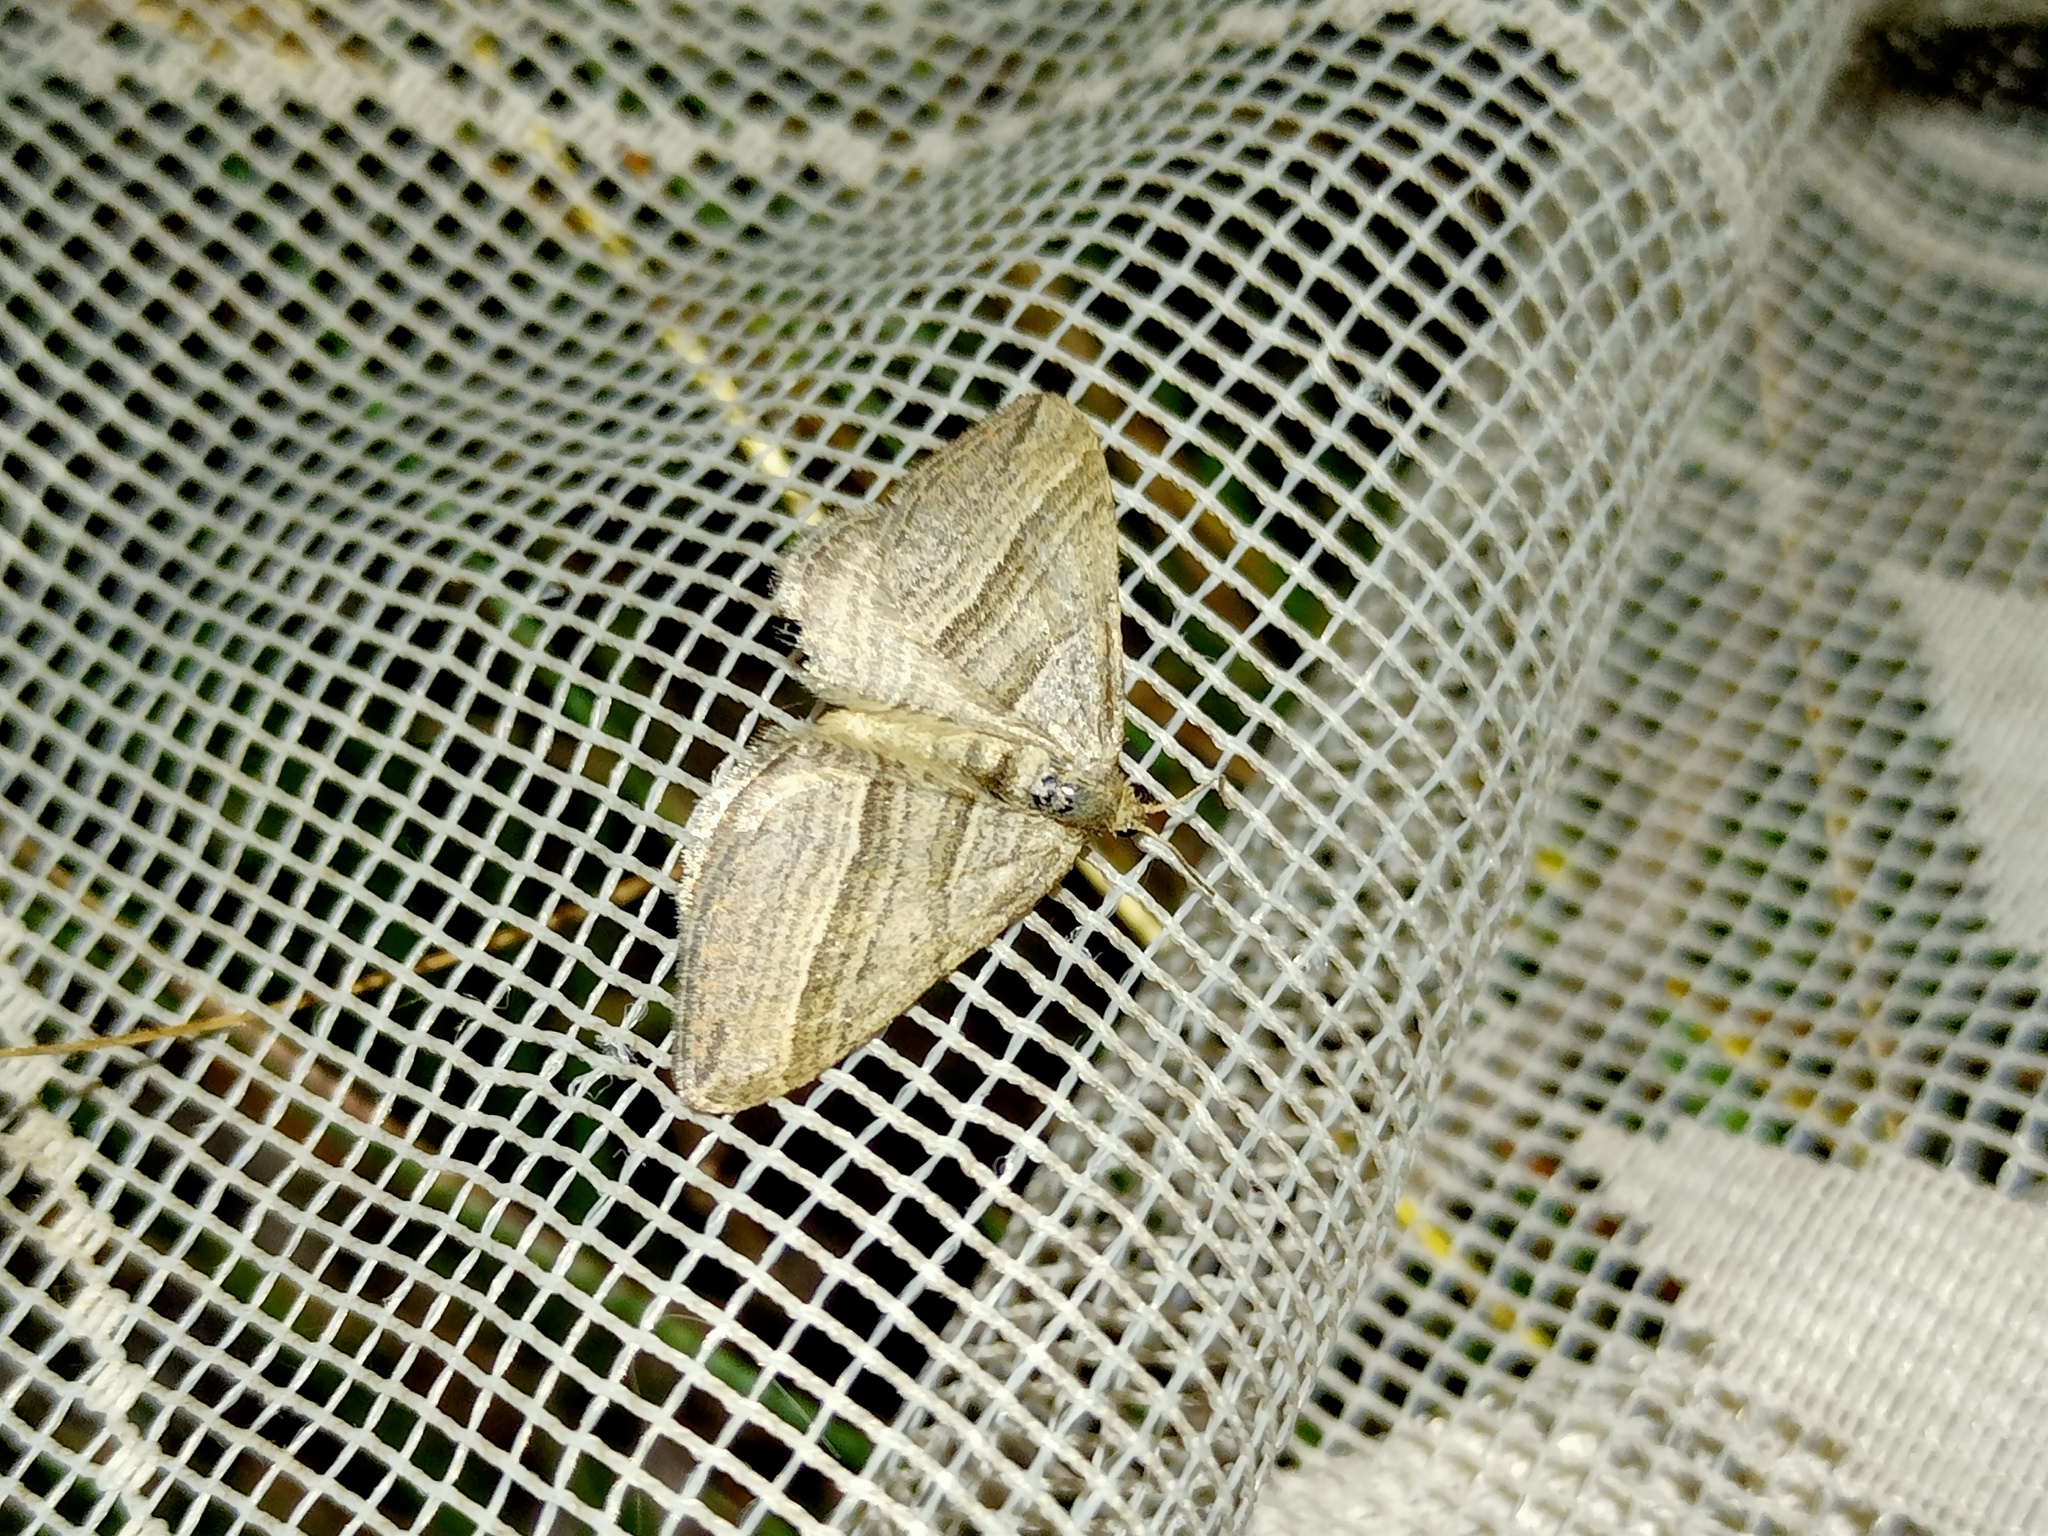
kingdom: Animalia
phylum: Arthropoda
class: Insecta
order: Lepidoptera
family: Geometridae
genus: Phibalapteryx
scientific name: Phibalapteryx virgata
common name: Oblique striped
